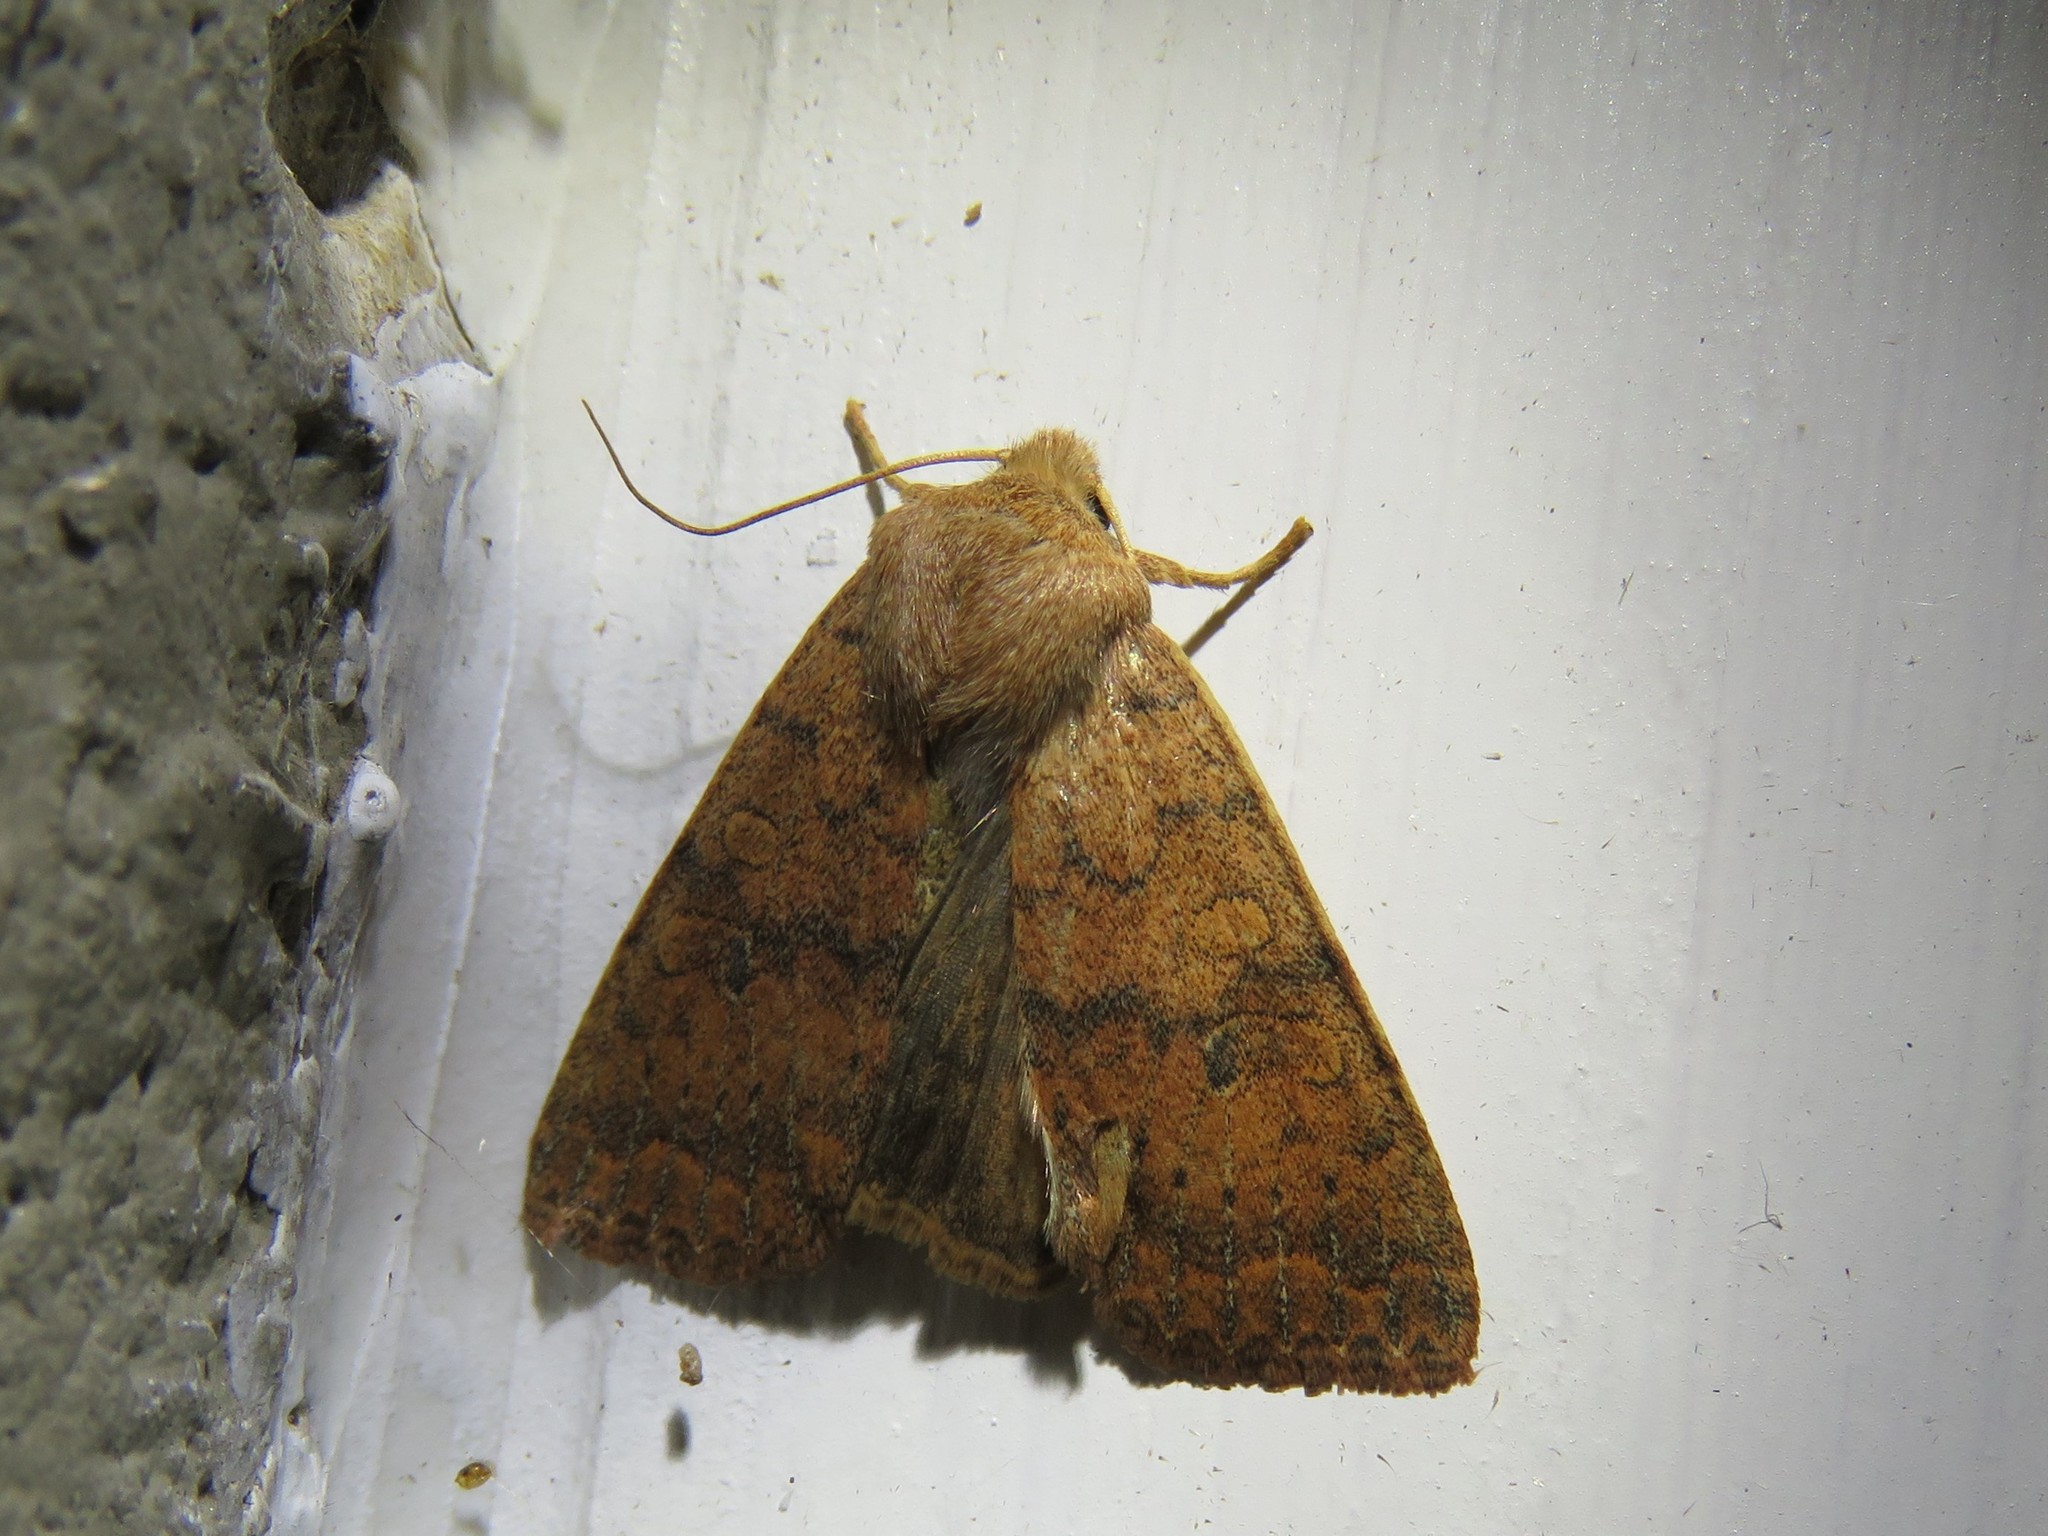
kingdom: Animalia
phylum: Arthropoda
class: Insecta
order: Lepidoptera
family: Noctuidae
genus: Agrochola
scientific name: Agrochola bicolorago
